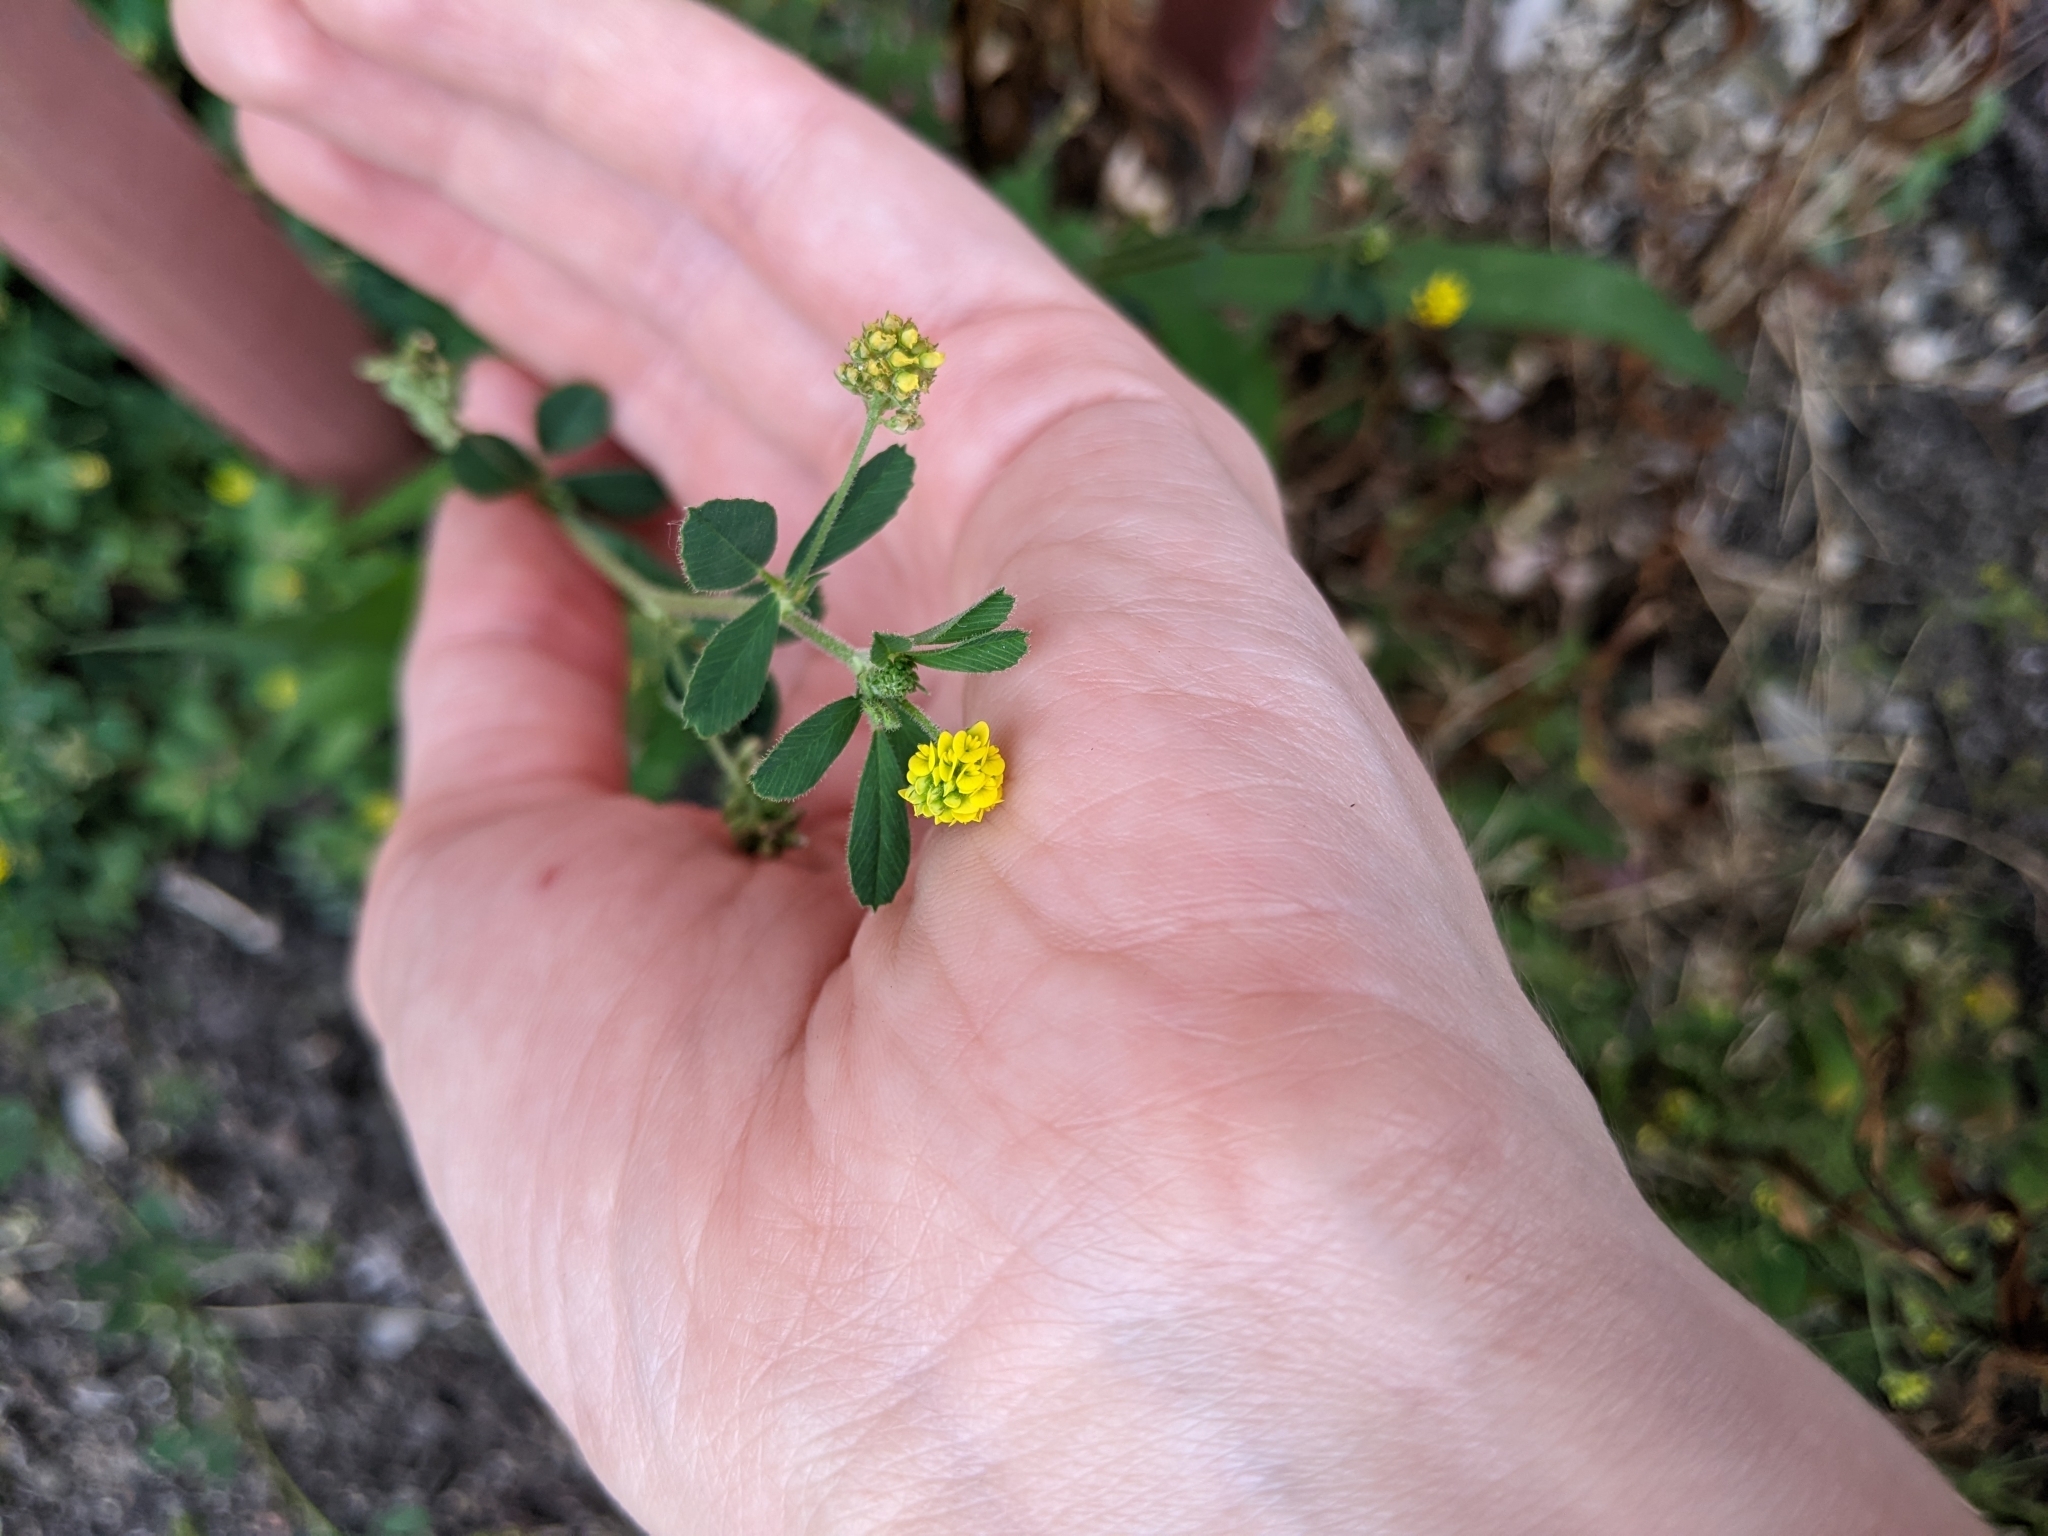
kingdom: Plantae
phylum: Tracheophyta
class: Magnoliopsida
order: Fabales
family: Fabaceae
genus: Medicago
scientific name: Medicago lupulina
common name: Black medick
